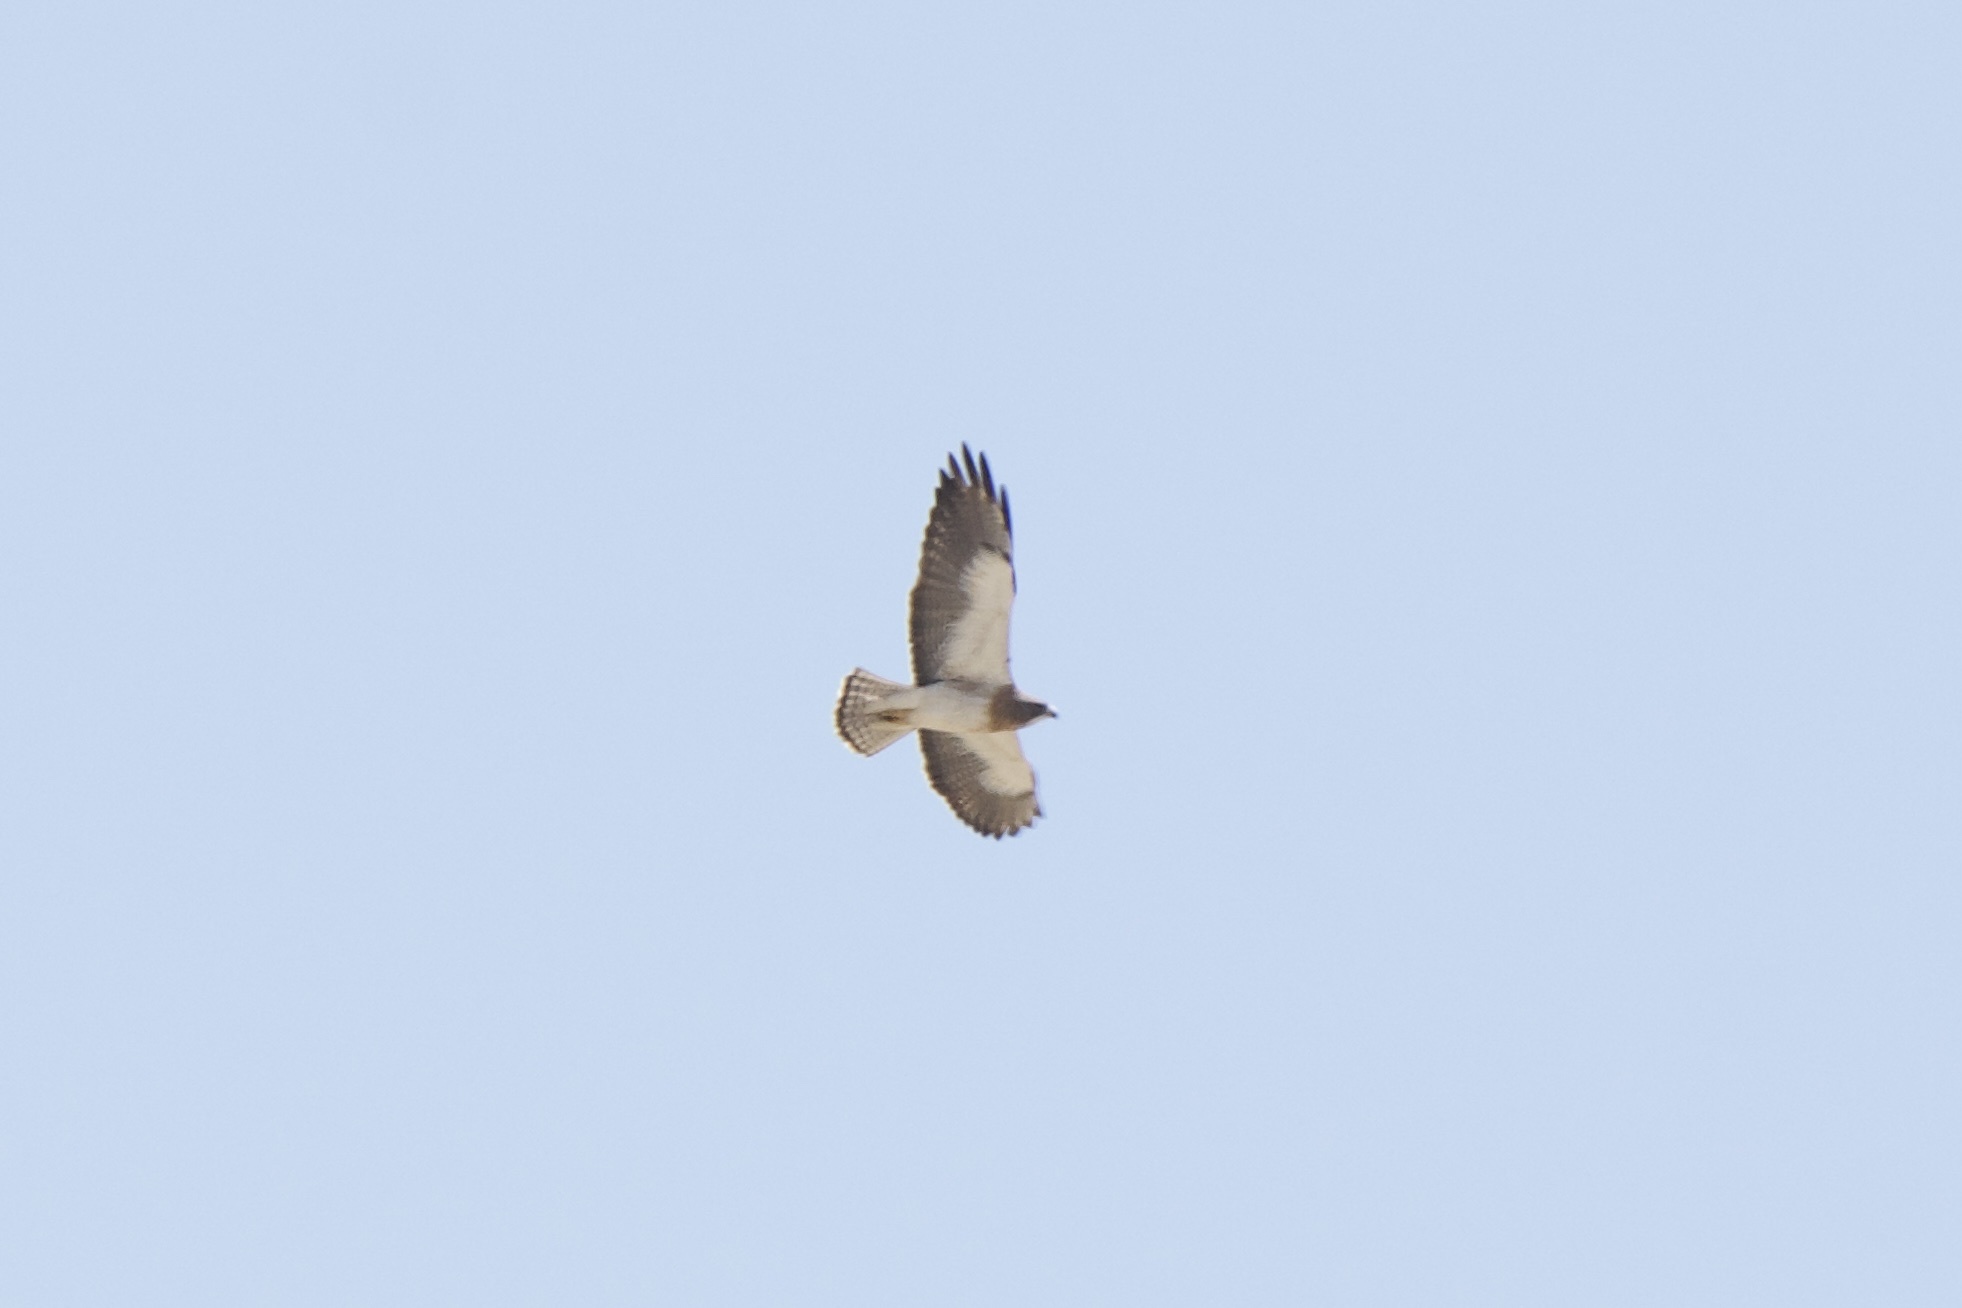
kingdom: Animalia
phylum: Chordata
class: Aves
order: Accipitriformes
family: Accipitridae
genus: Buteo
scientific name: Buteo swainsoni
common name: Swainson's hawk
